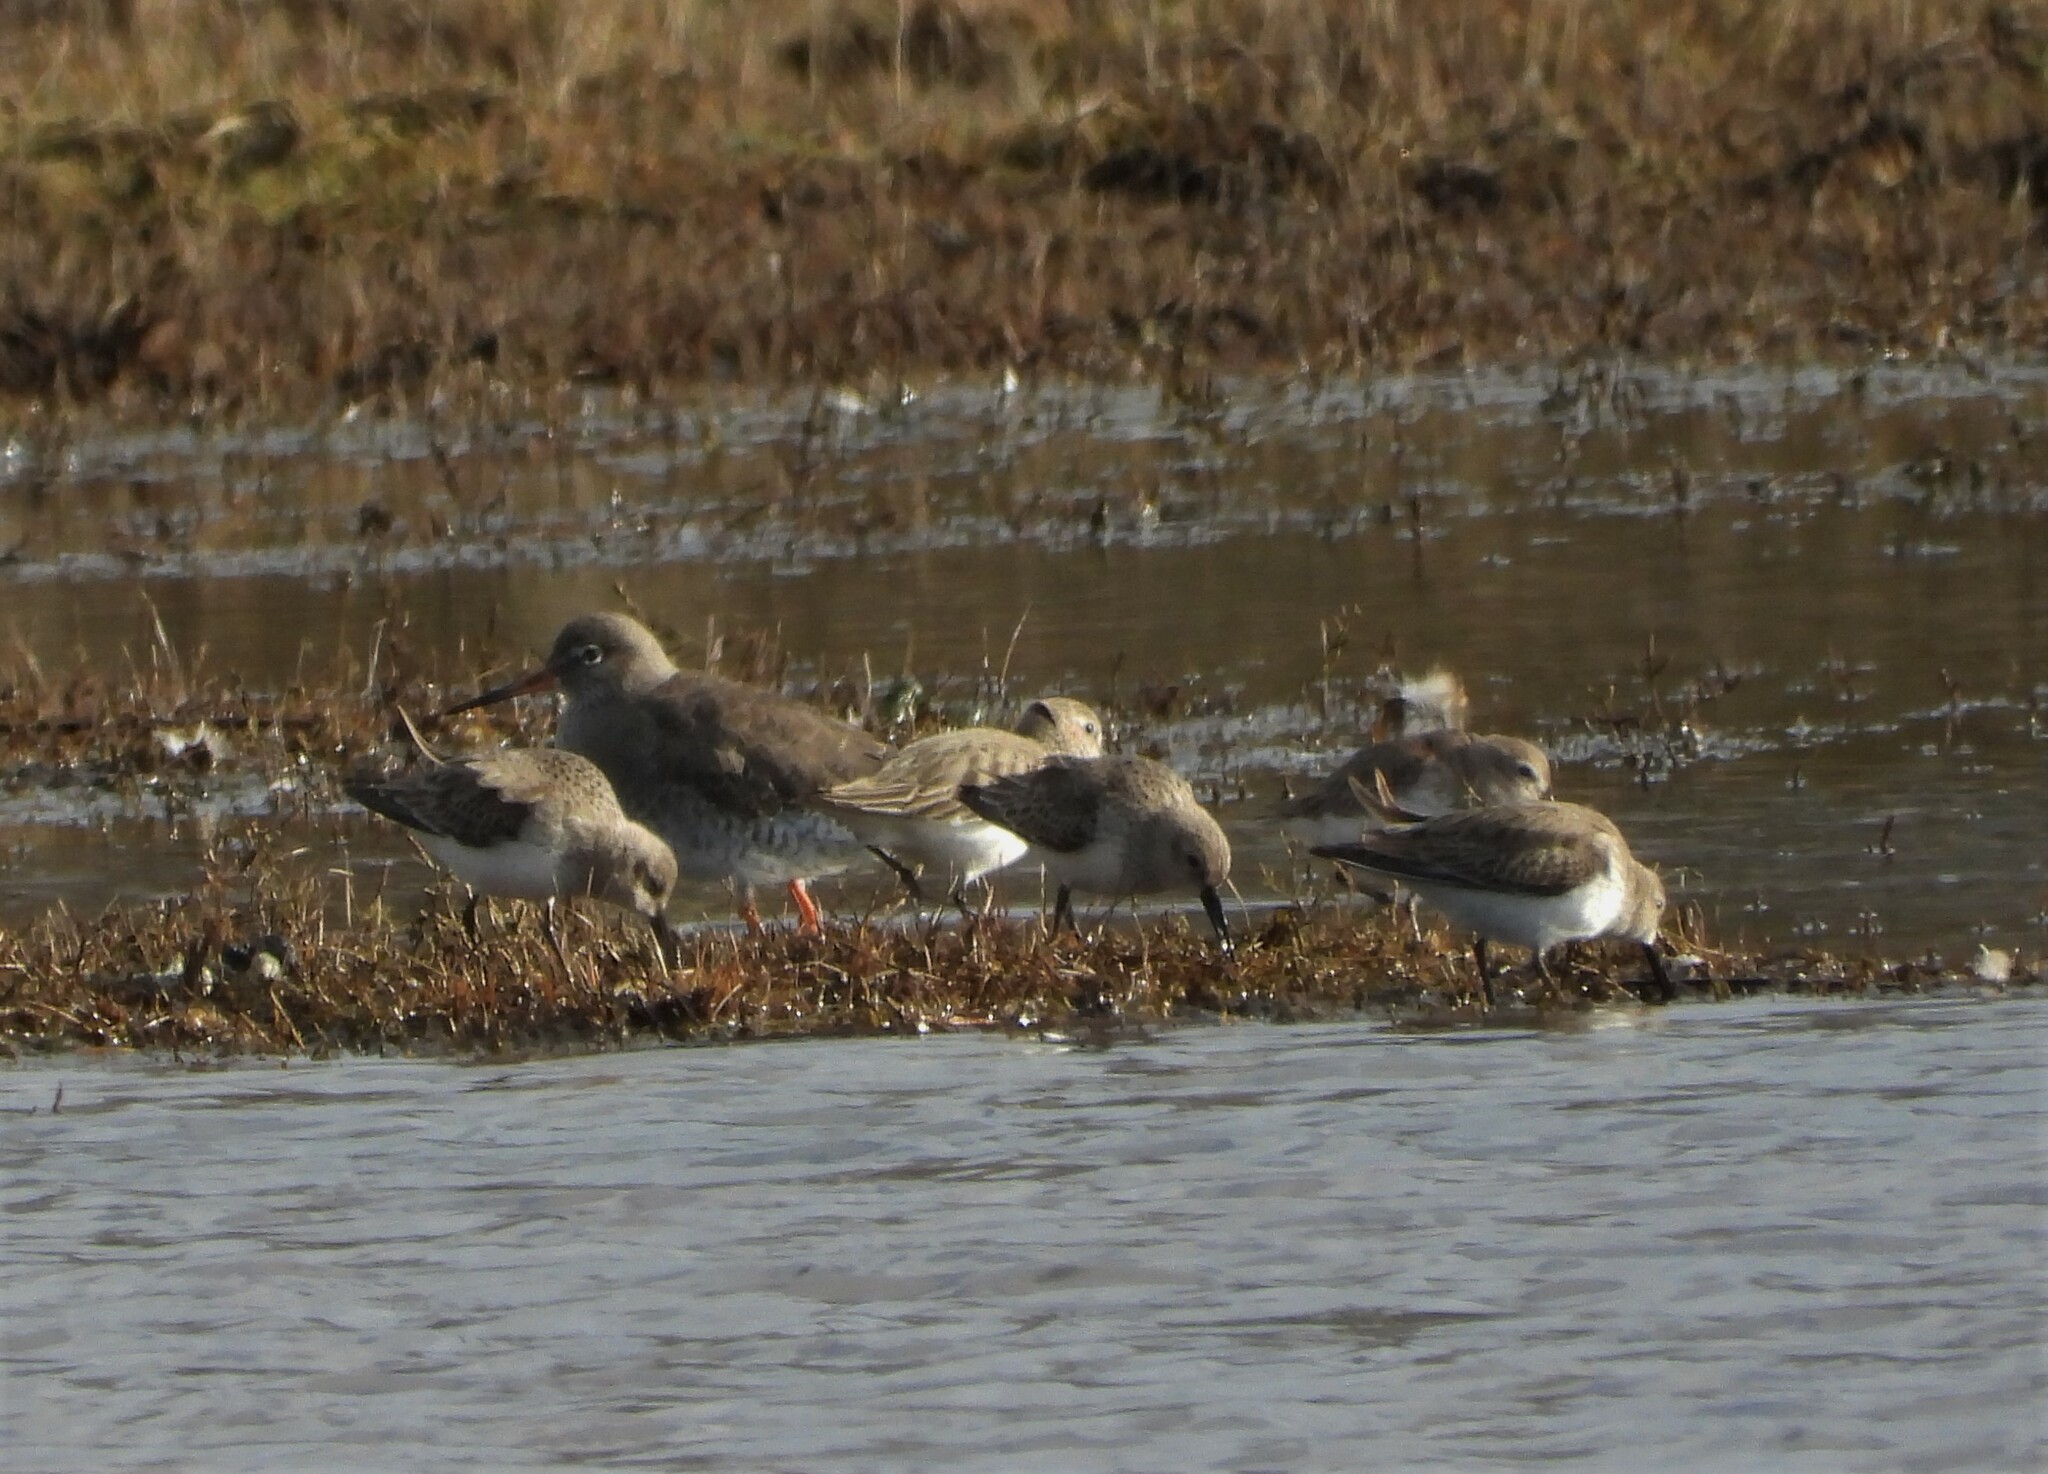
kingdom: Animalia
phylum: Chordata
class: Aves
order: Charadriiformes
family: Scolopacidae
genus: Calidris
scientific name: Calidris alpina
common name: Dunlin
